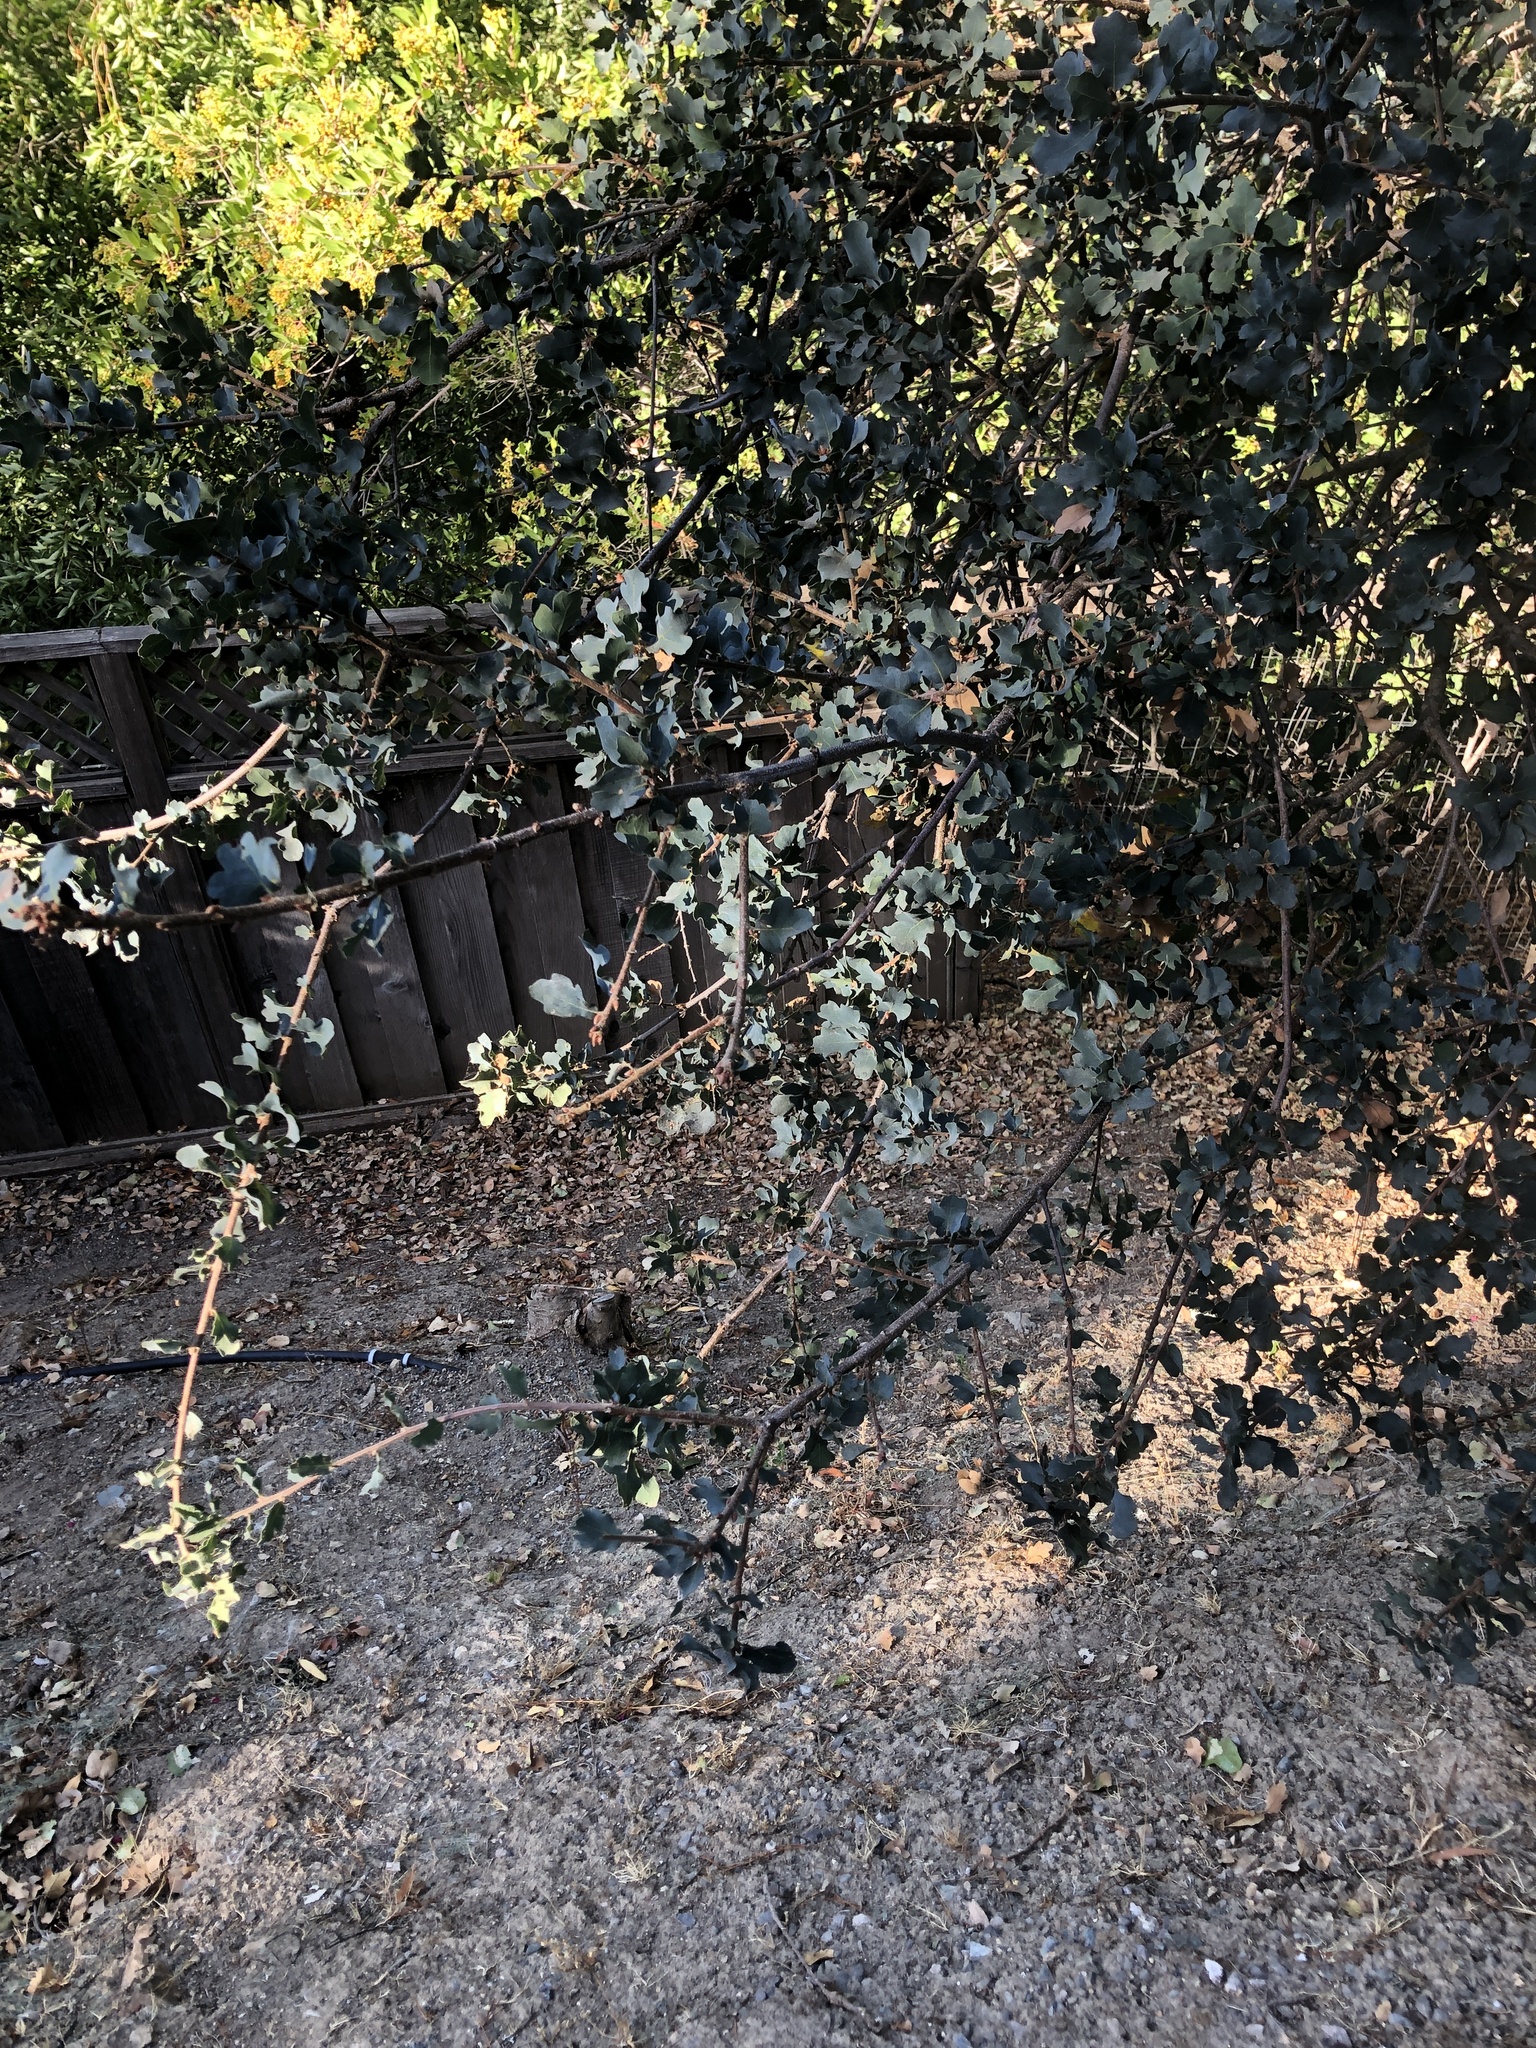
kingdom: Plantae
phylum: Tracheophyta
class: Magnoliopsida
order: Fagales
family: Fagaceae
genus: Quercus
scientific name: Quercus jolonensis
